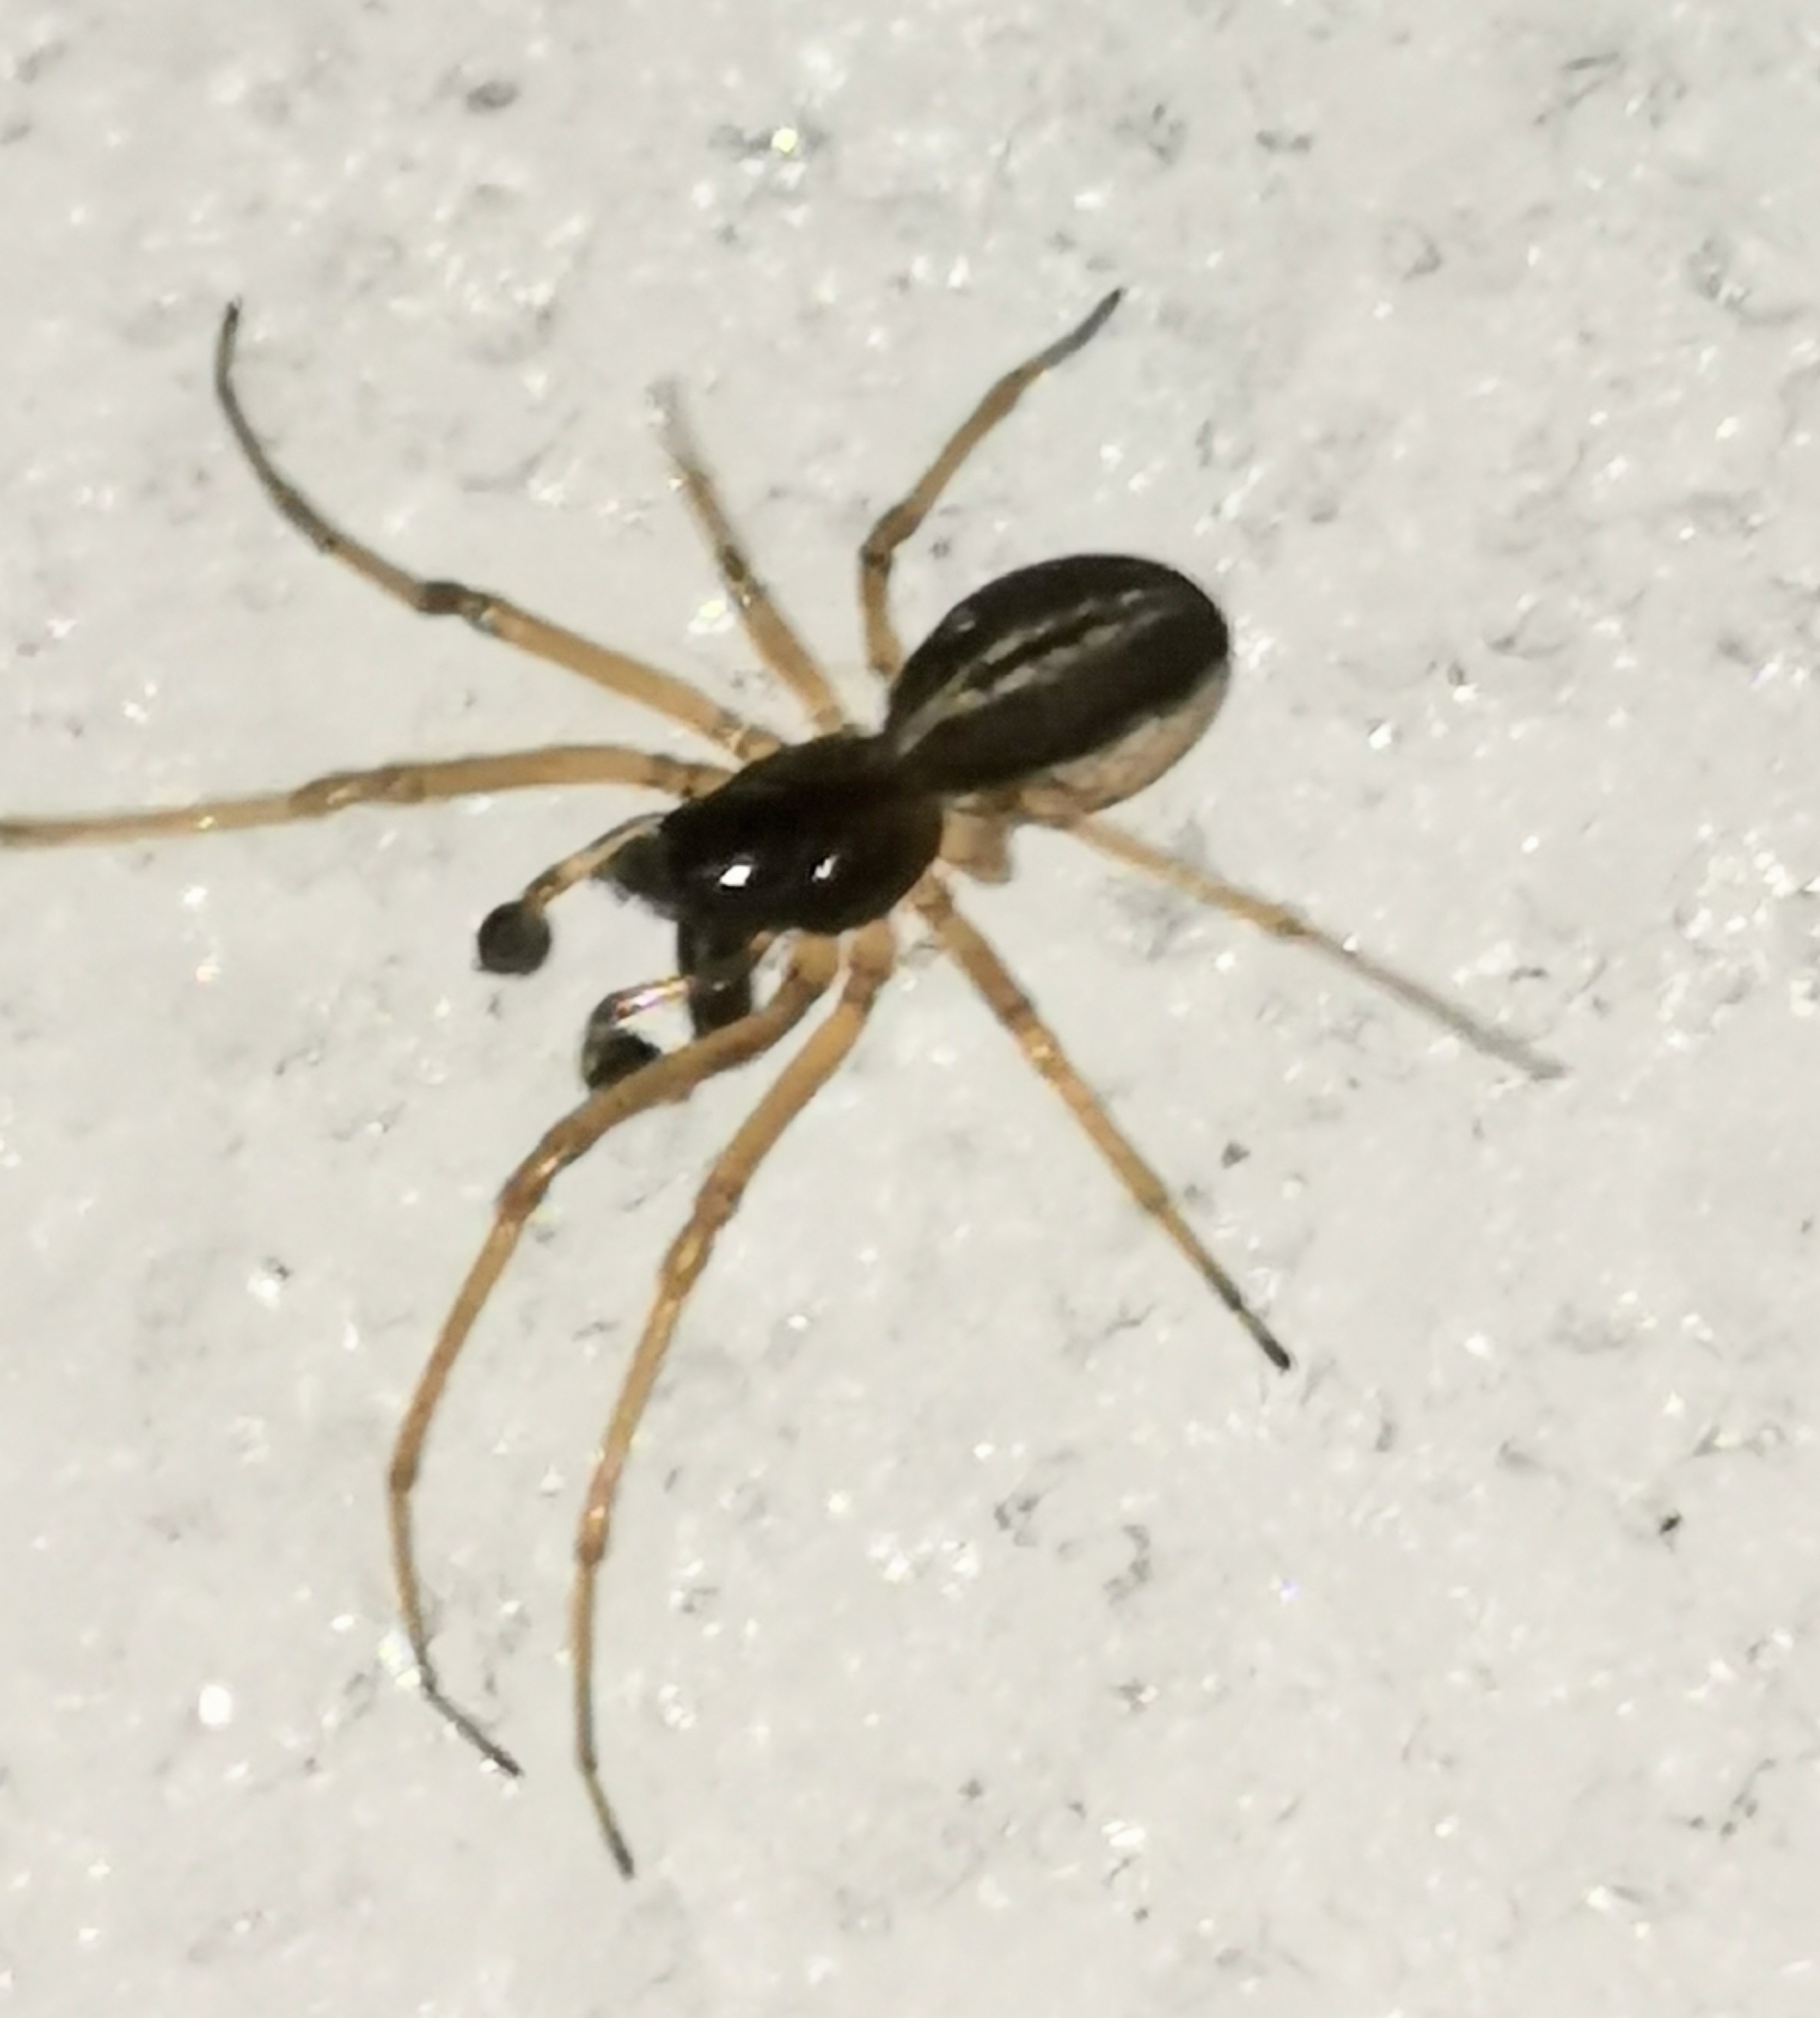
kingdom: Animalia
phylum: Arthropoda
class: Arachnida
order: Araneae
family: Tetragnathidae
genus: Pachygnatha
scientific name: Pachygnatha degeeri
